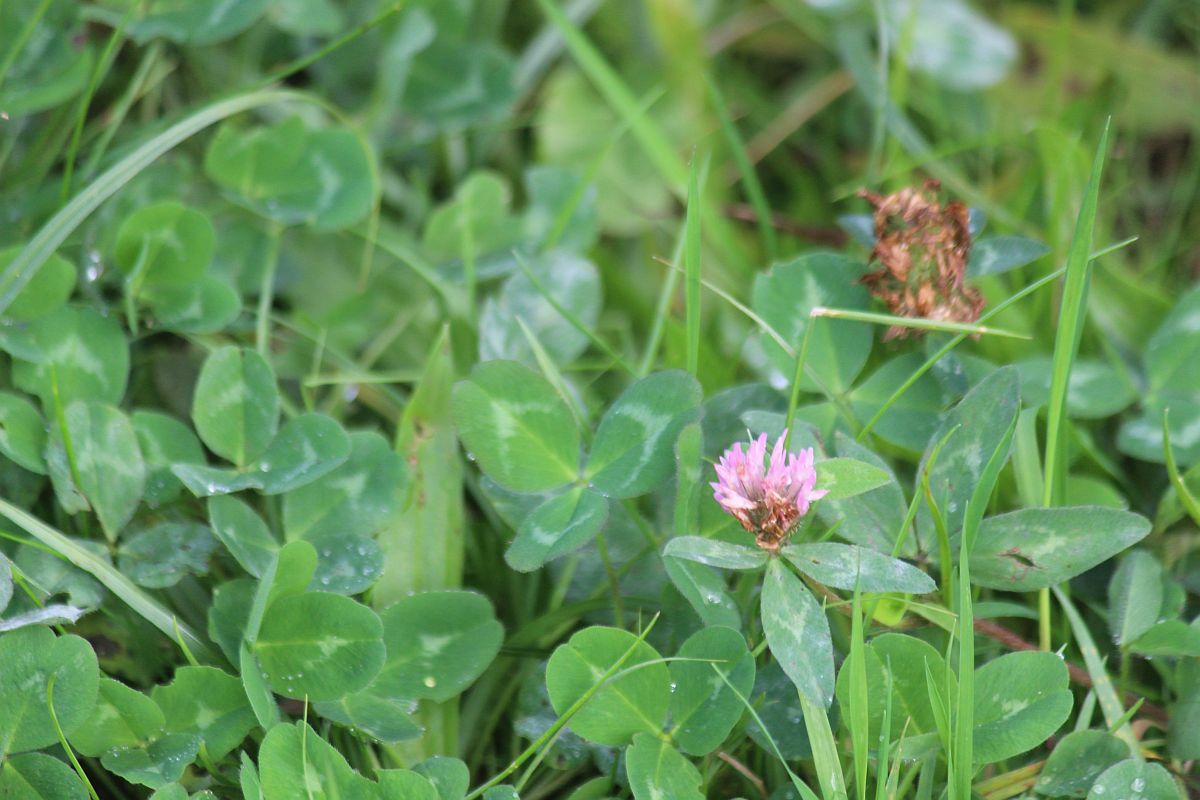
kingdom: Plantae
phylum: Tracheophyta
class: Magnoliopsida
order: Fabales
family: Fabaceae
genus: Trifolium
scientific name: Trifolium pratense
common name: Red clover
